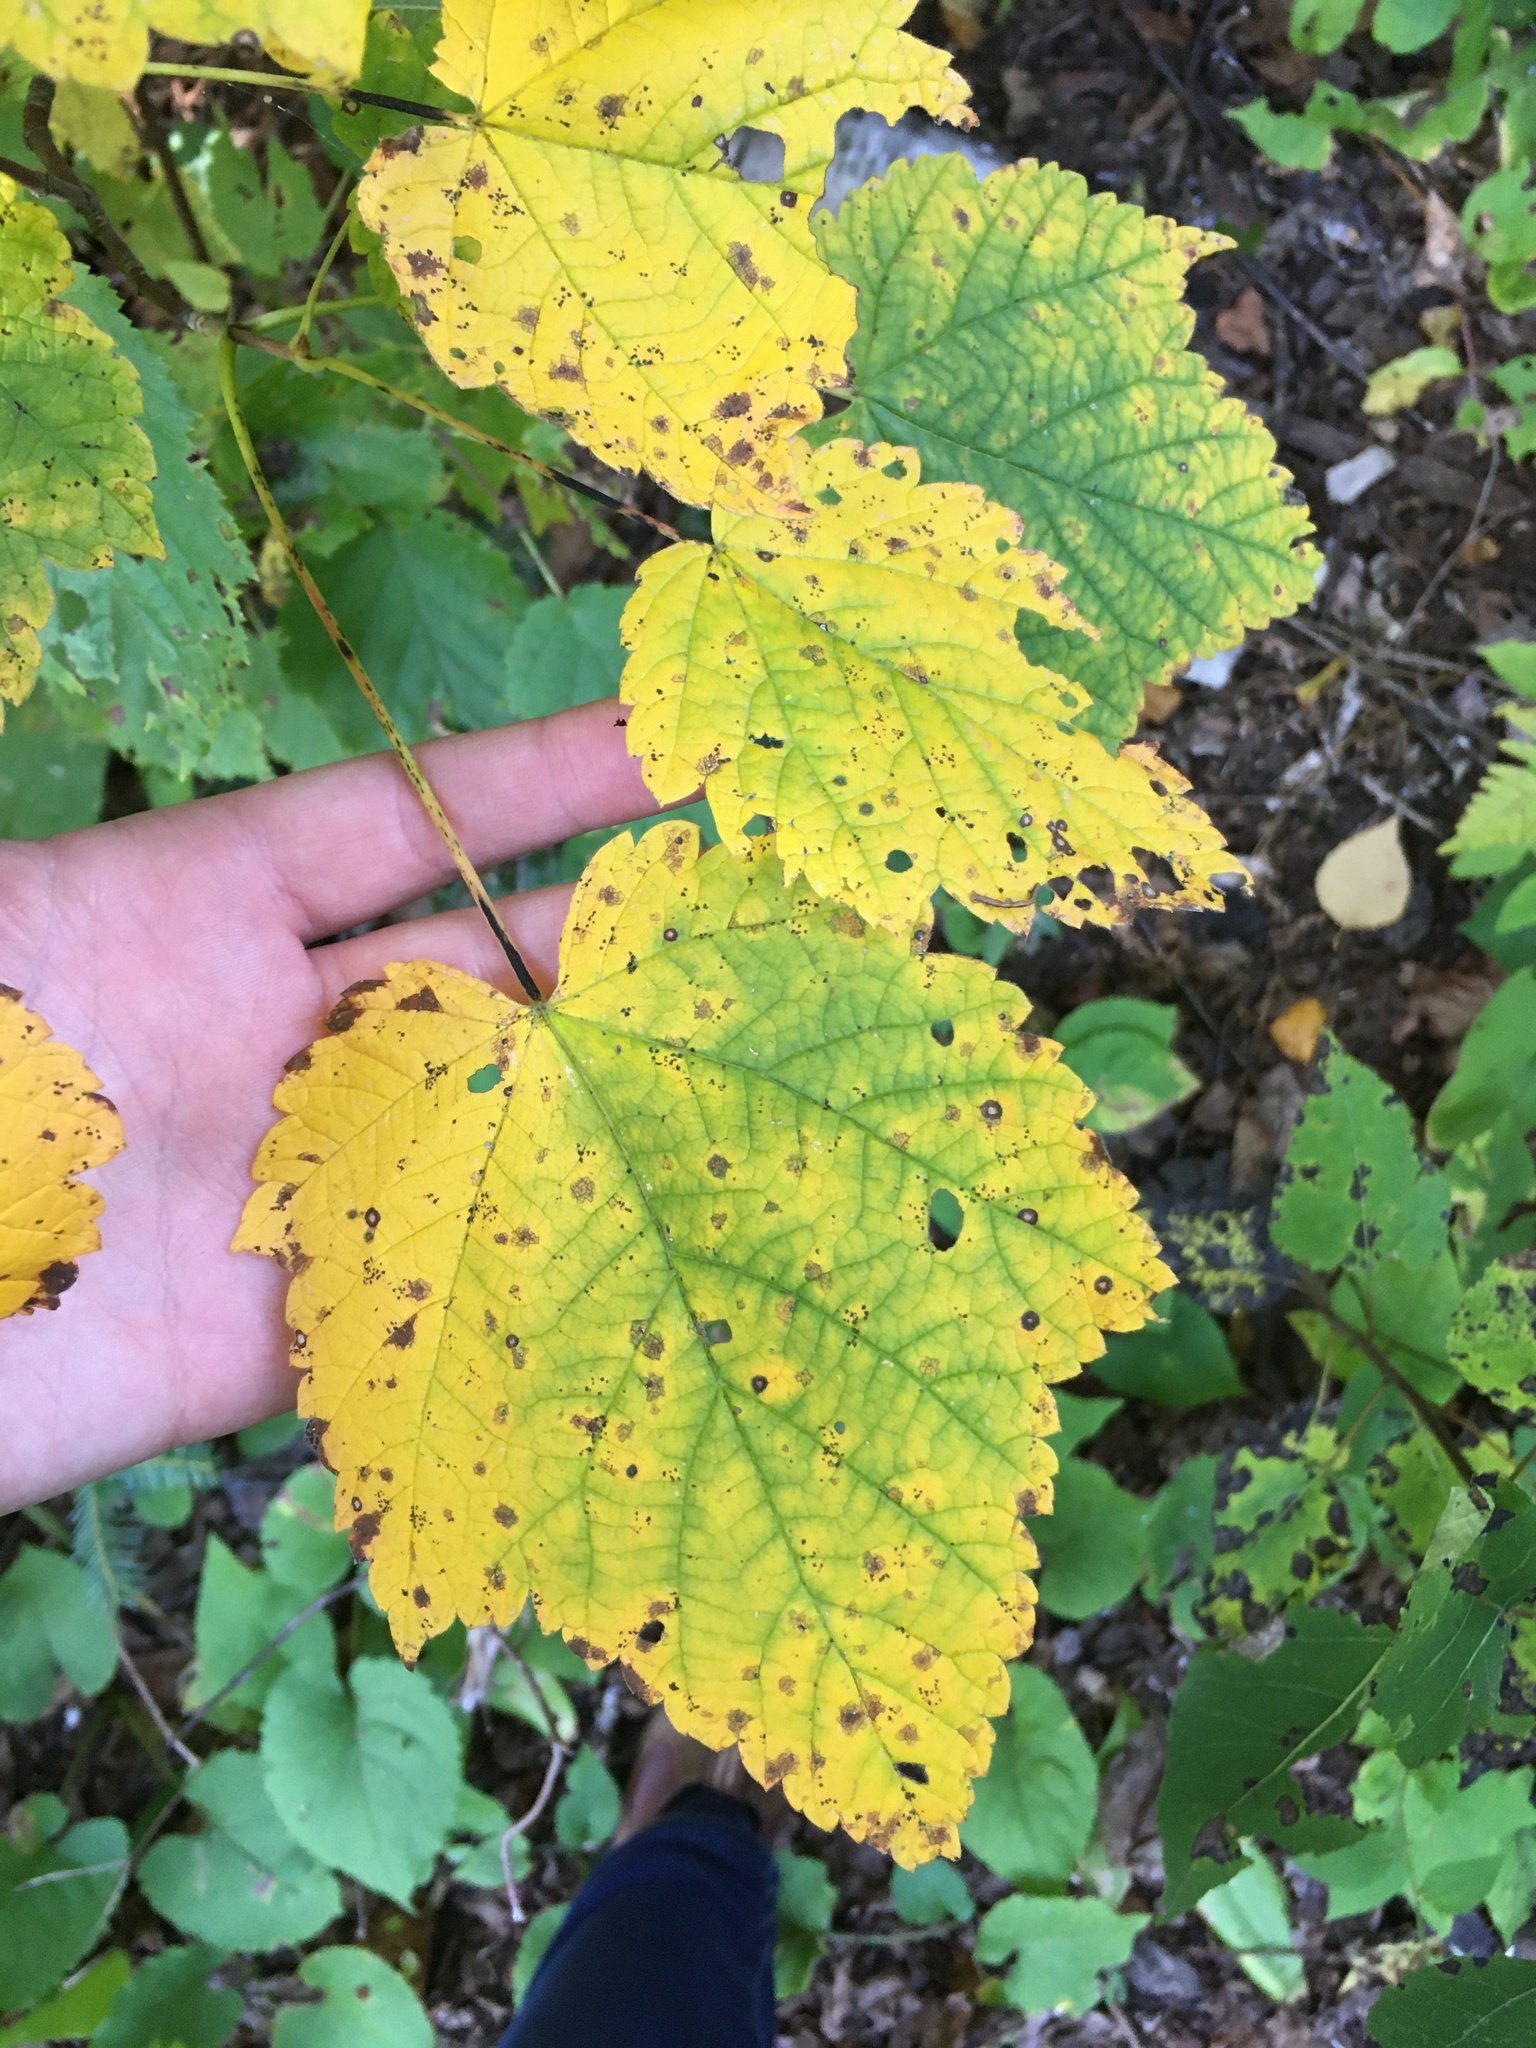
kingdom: Plantae
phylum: Tracheophyta
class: Magnoliopsida
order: Sapindales
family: Sapindaceae
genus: Acer
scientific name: Acer spicatum
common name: Mountain maple
